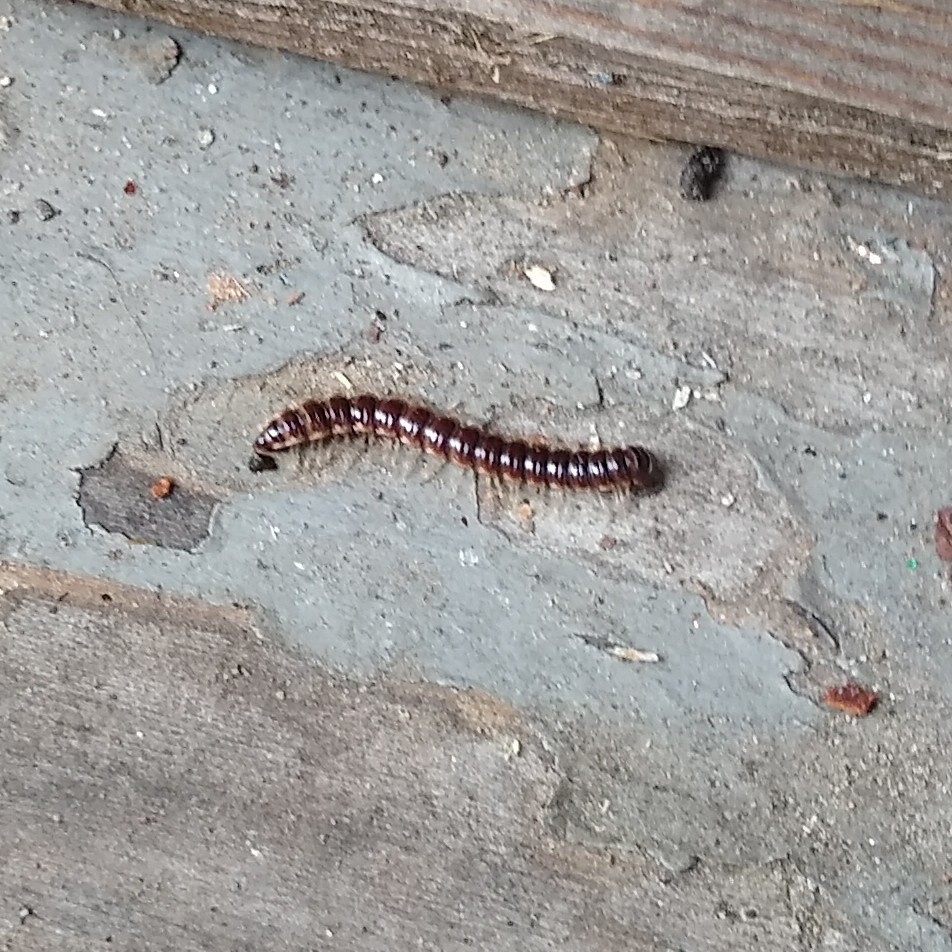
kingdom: Animalia
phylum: Arthropoda
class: Diplopoda
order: Polydesmida
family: Paradoxosomatidae
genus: Oxidus
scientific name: Oxidus gracilis
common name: Greenhouse millipede
